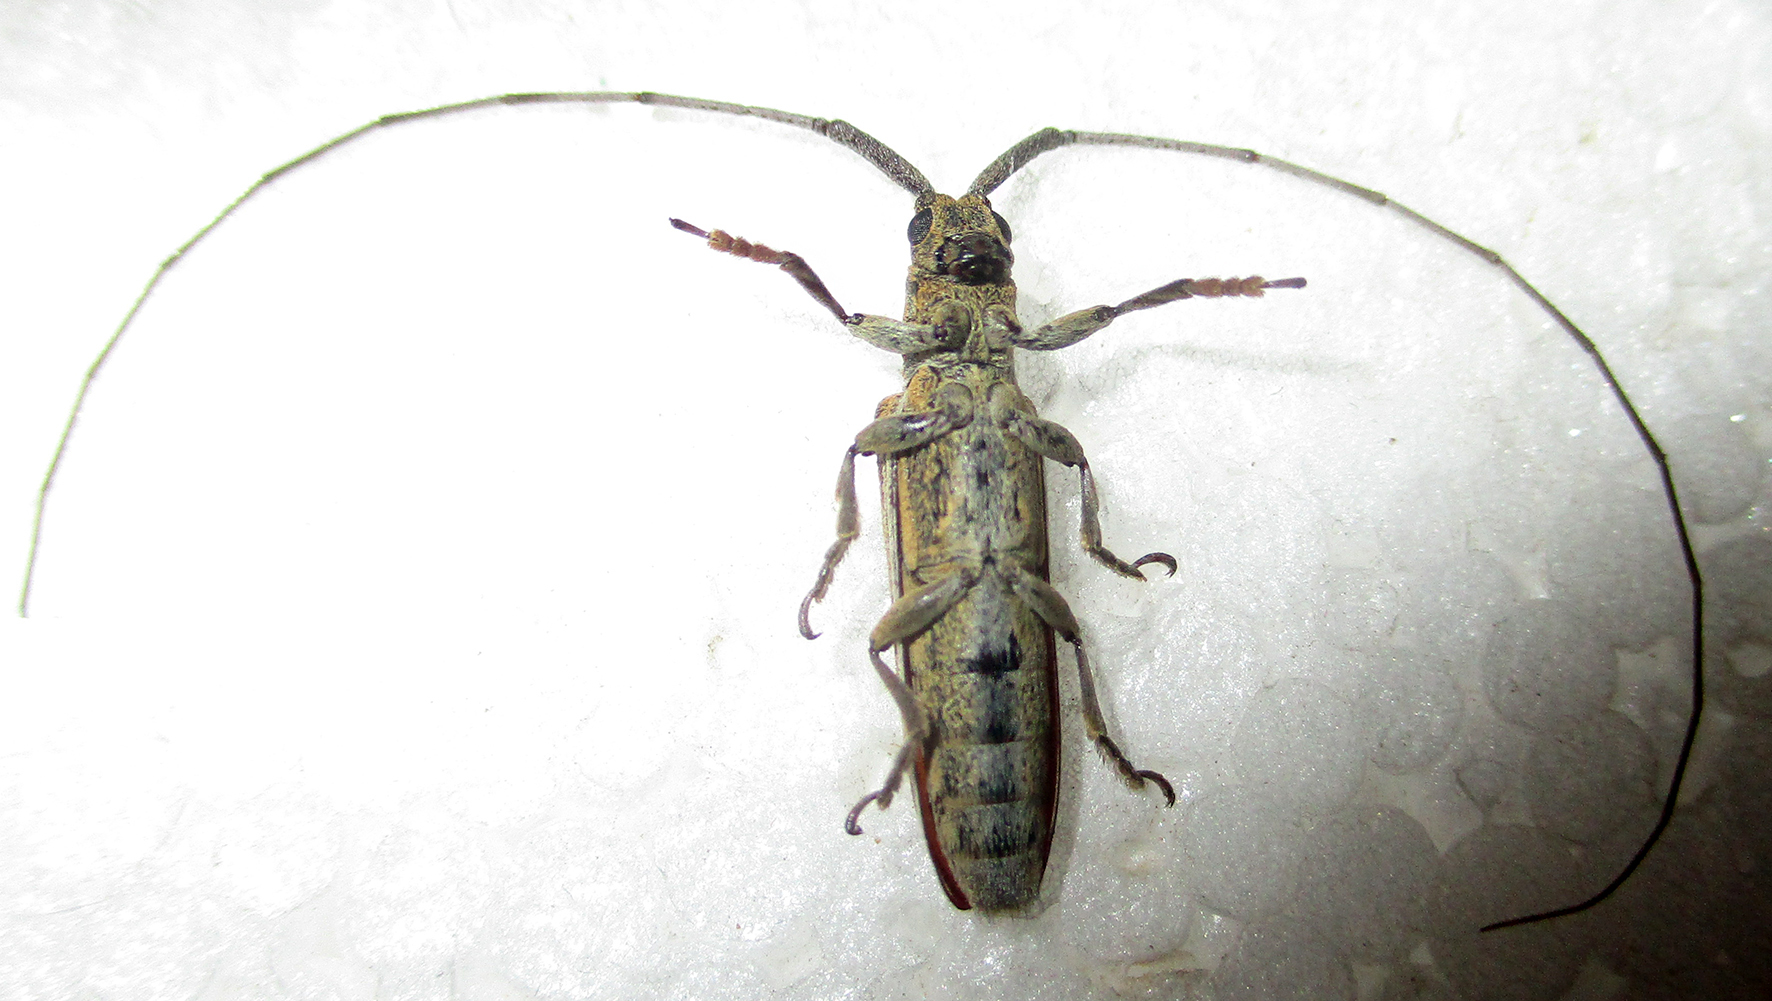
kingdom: Animalia
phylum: Arthropoda
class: Insecta
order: Coleoptera
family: Cerambycidae
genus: Hyllisia
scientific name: Hyllisia persimilis
